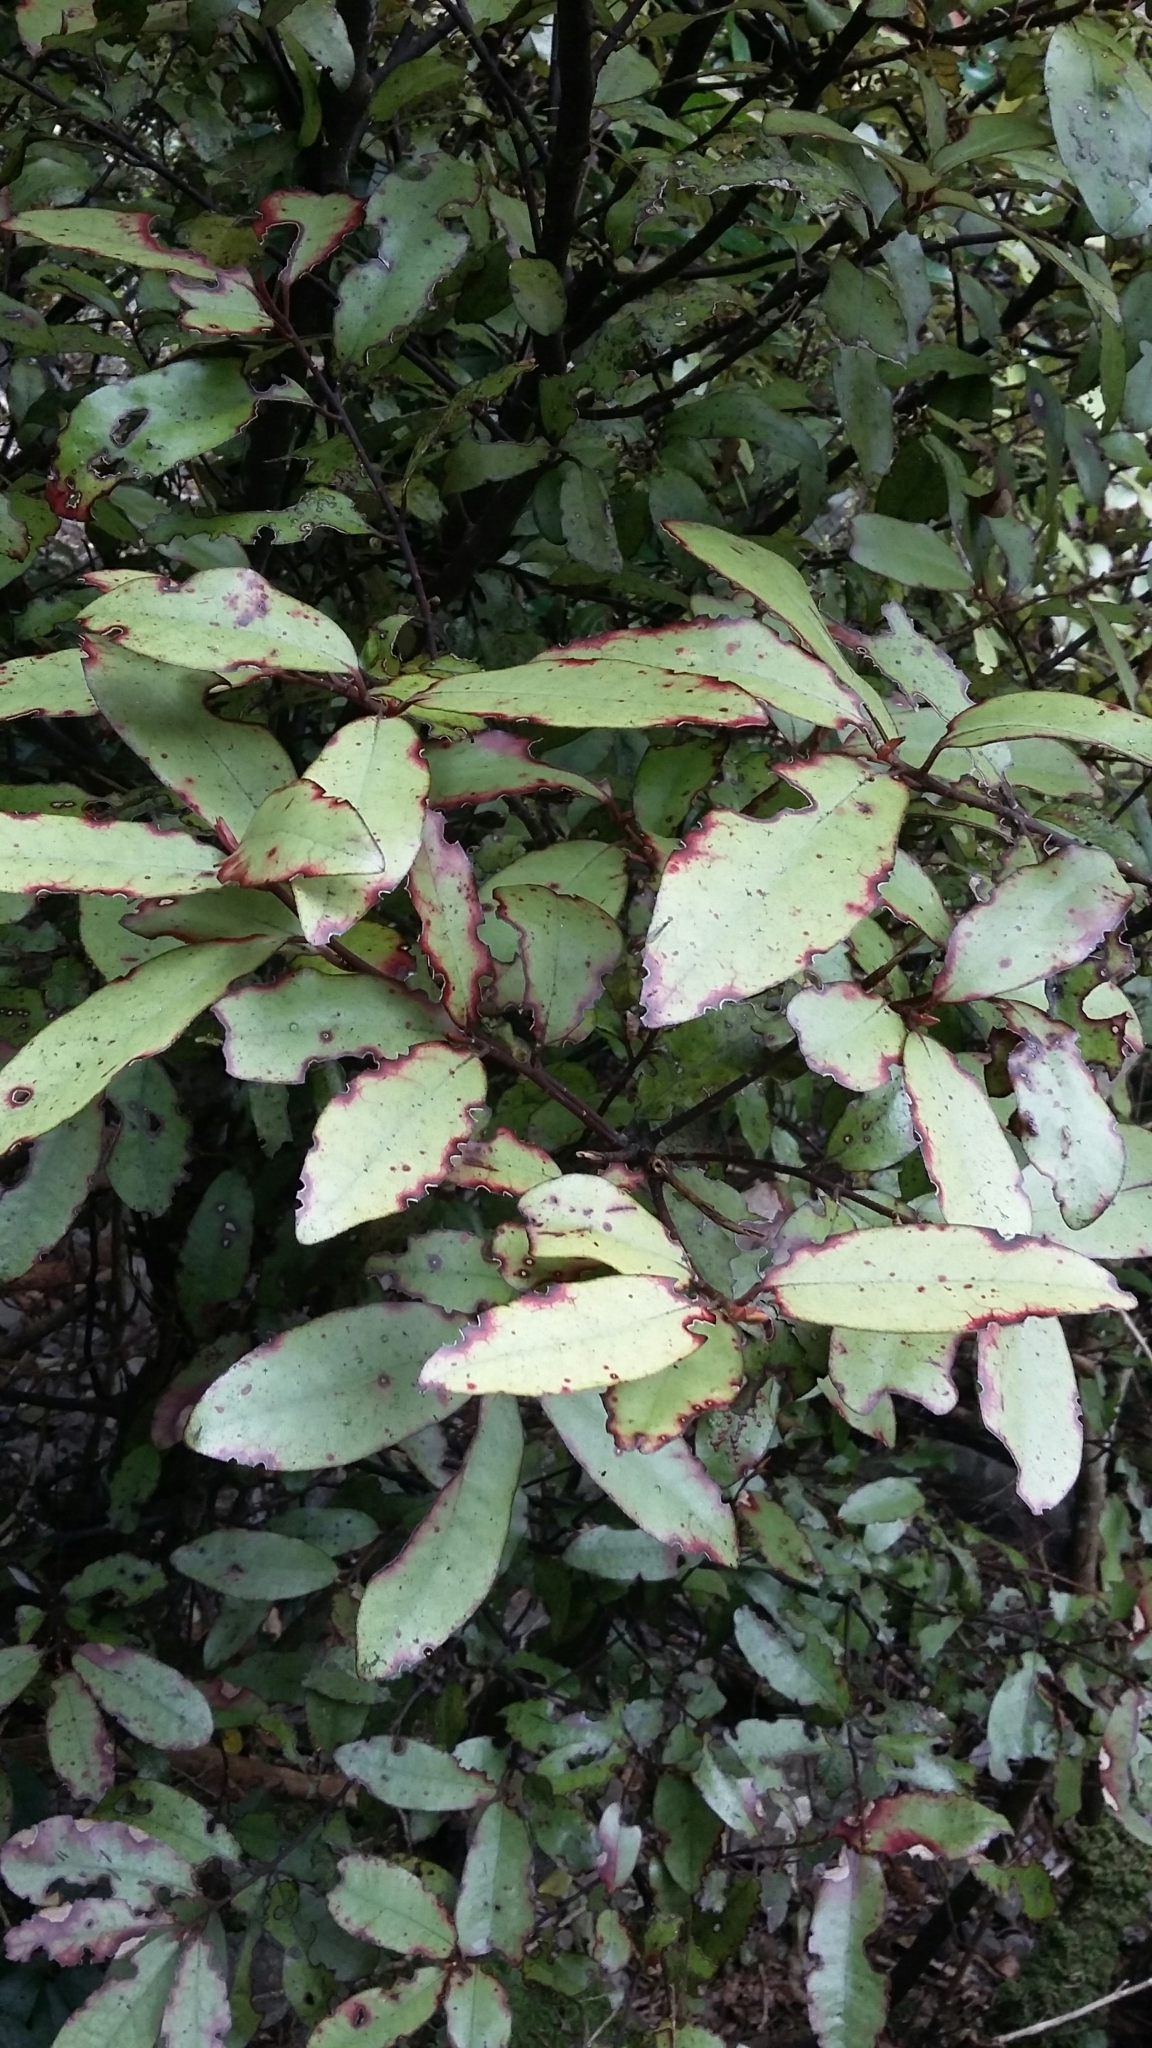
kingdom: Plantae
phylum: Tracheophyta
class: Magnoliopsida
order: Canellales
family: Winteraceae
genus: Pseudowintera
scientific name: Pseudowintera colorata
